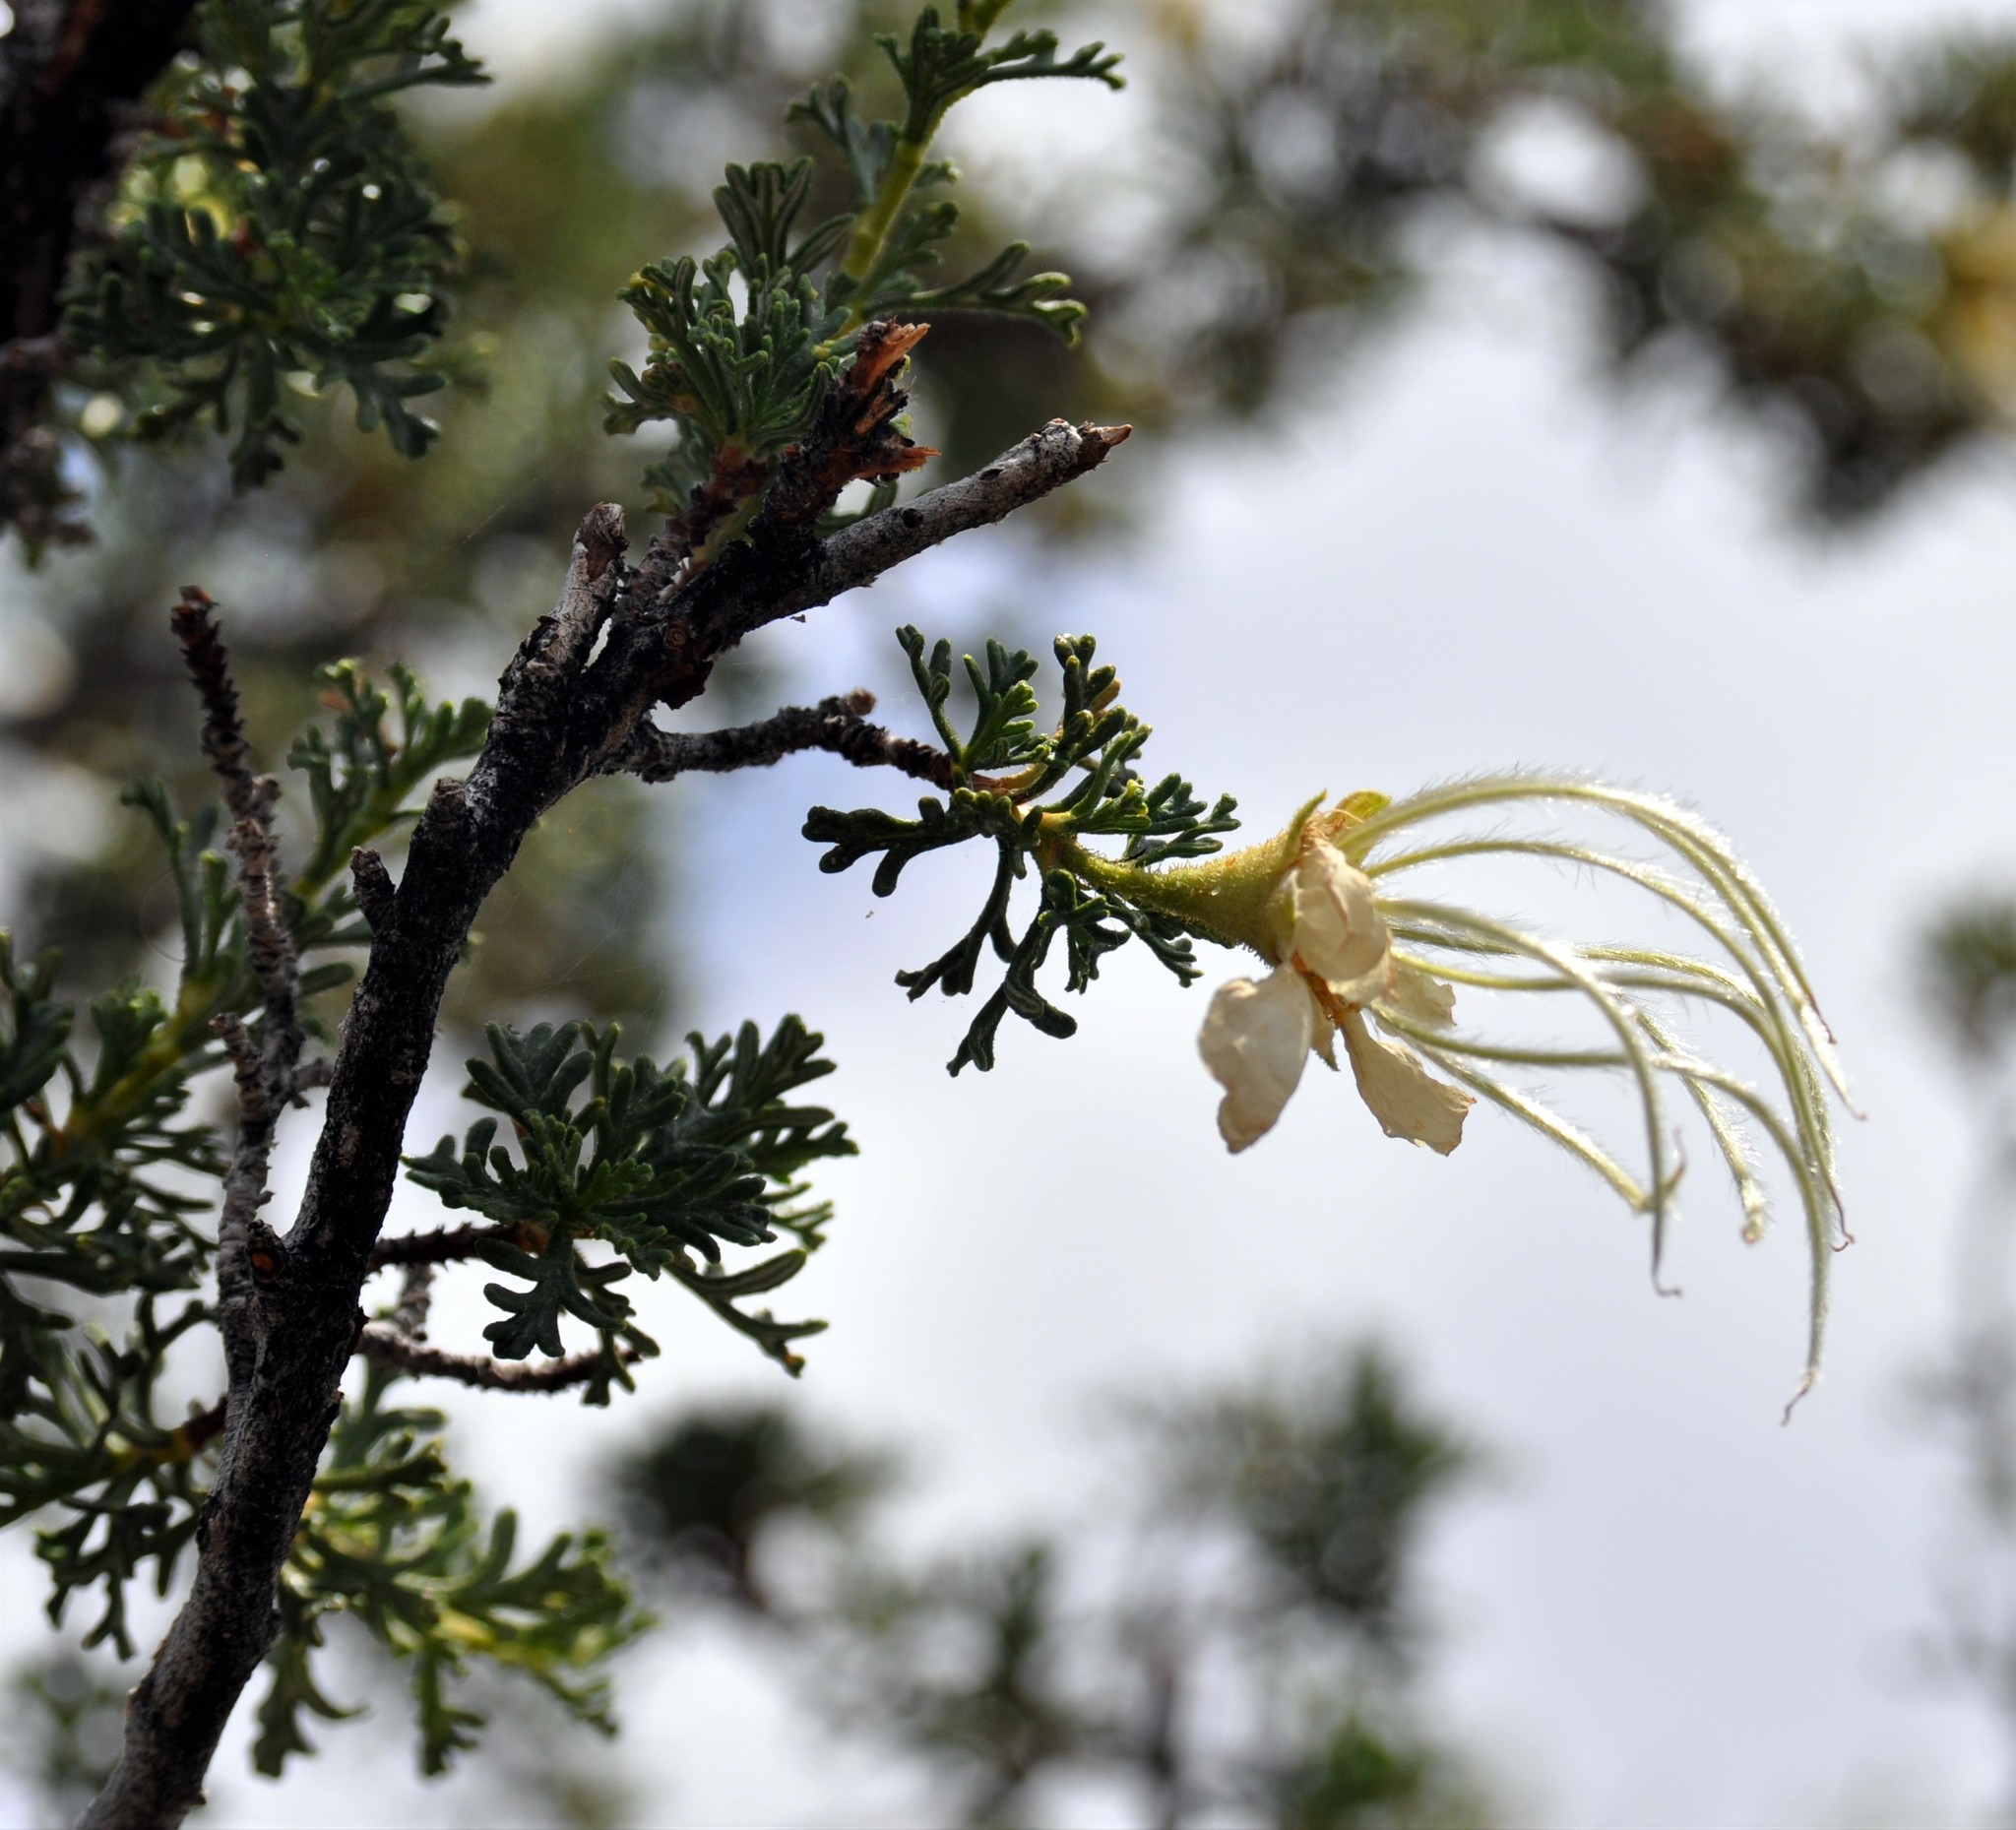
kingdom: Plantae
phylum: Tracheophyta
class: Magnoliopsida
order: Rosales
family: Rosaceae
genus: Purshia
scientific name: Purshia stansburiana
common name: Stansbury's cliffrose
